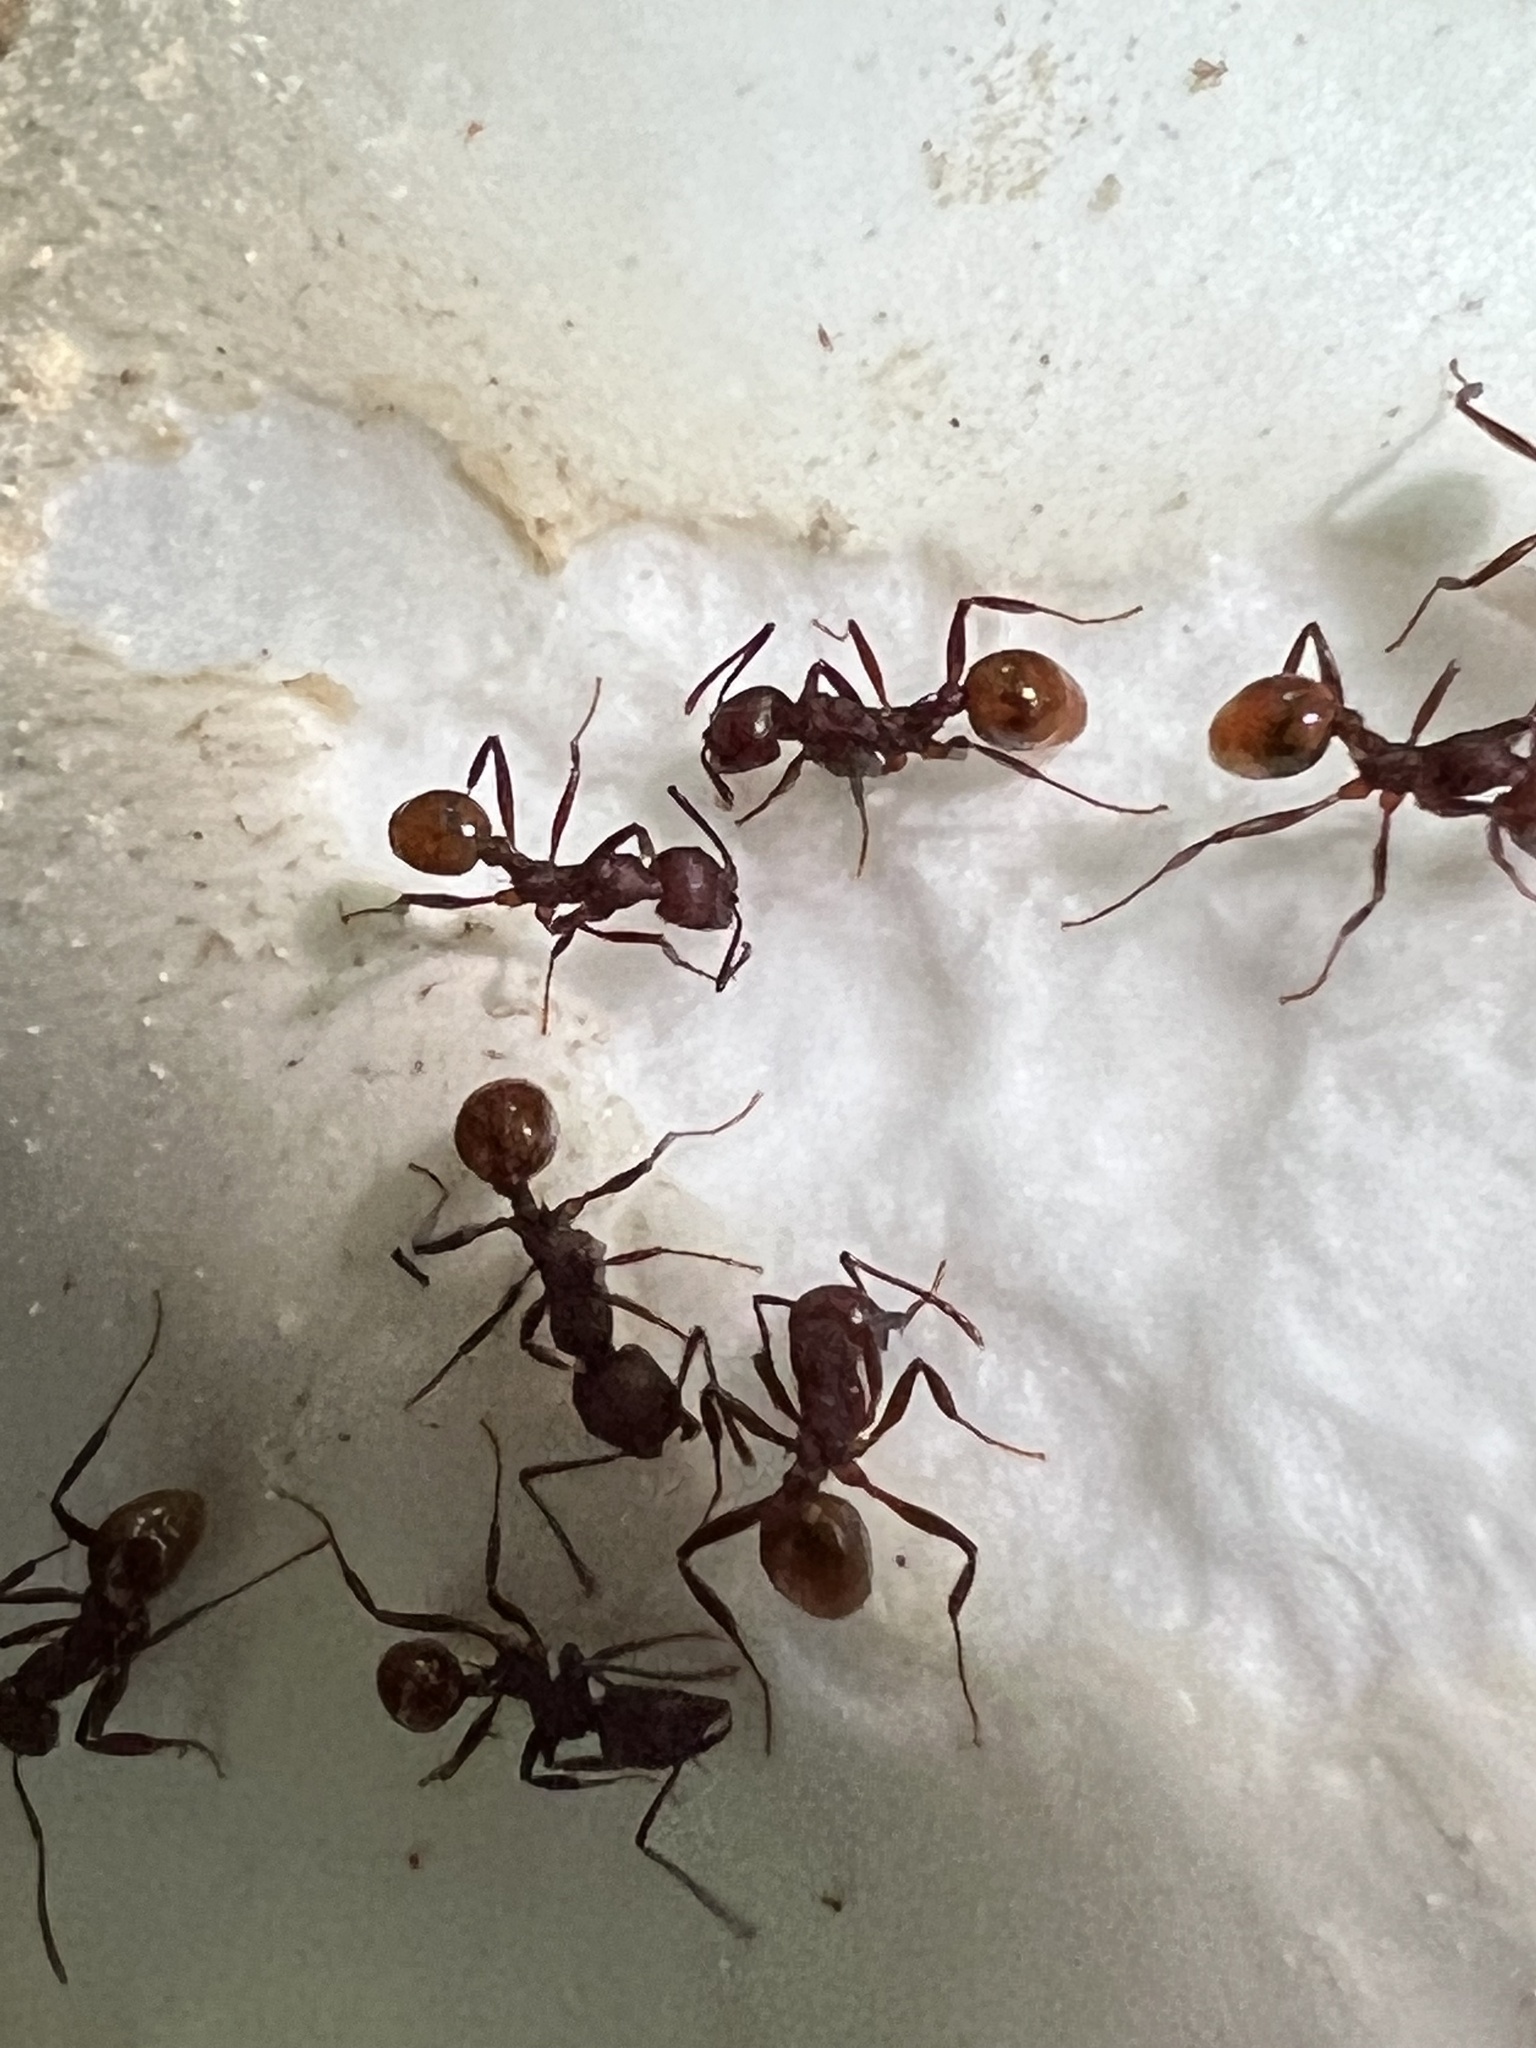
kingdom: Animalia
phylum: Arthropoda
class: Insecta
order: Hymenoptera
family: Formicidae
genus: Aphaenogaster
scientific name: Aphaenogaster tennesseensis
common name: Tennessee thread-waisted ant
